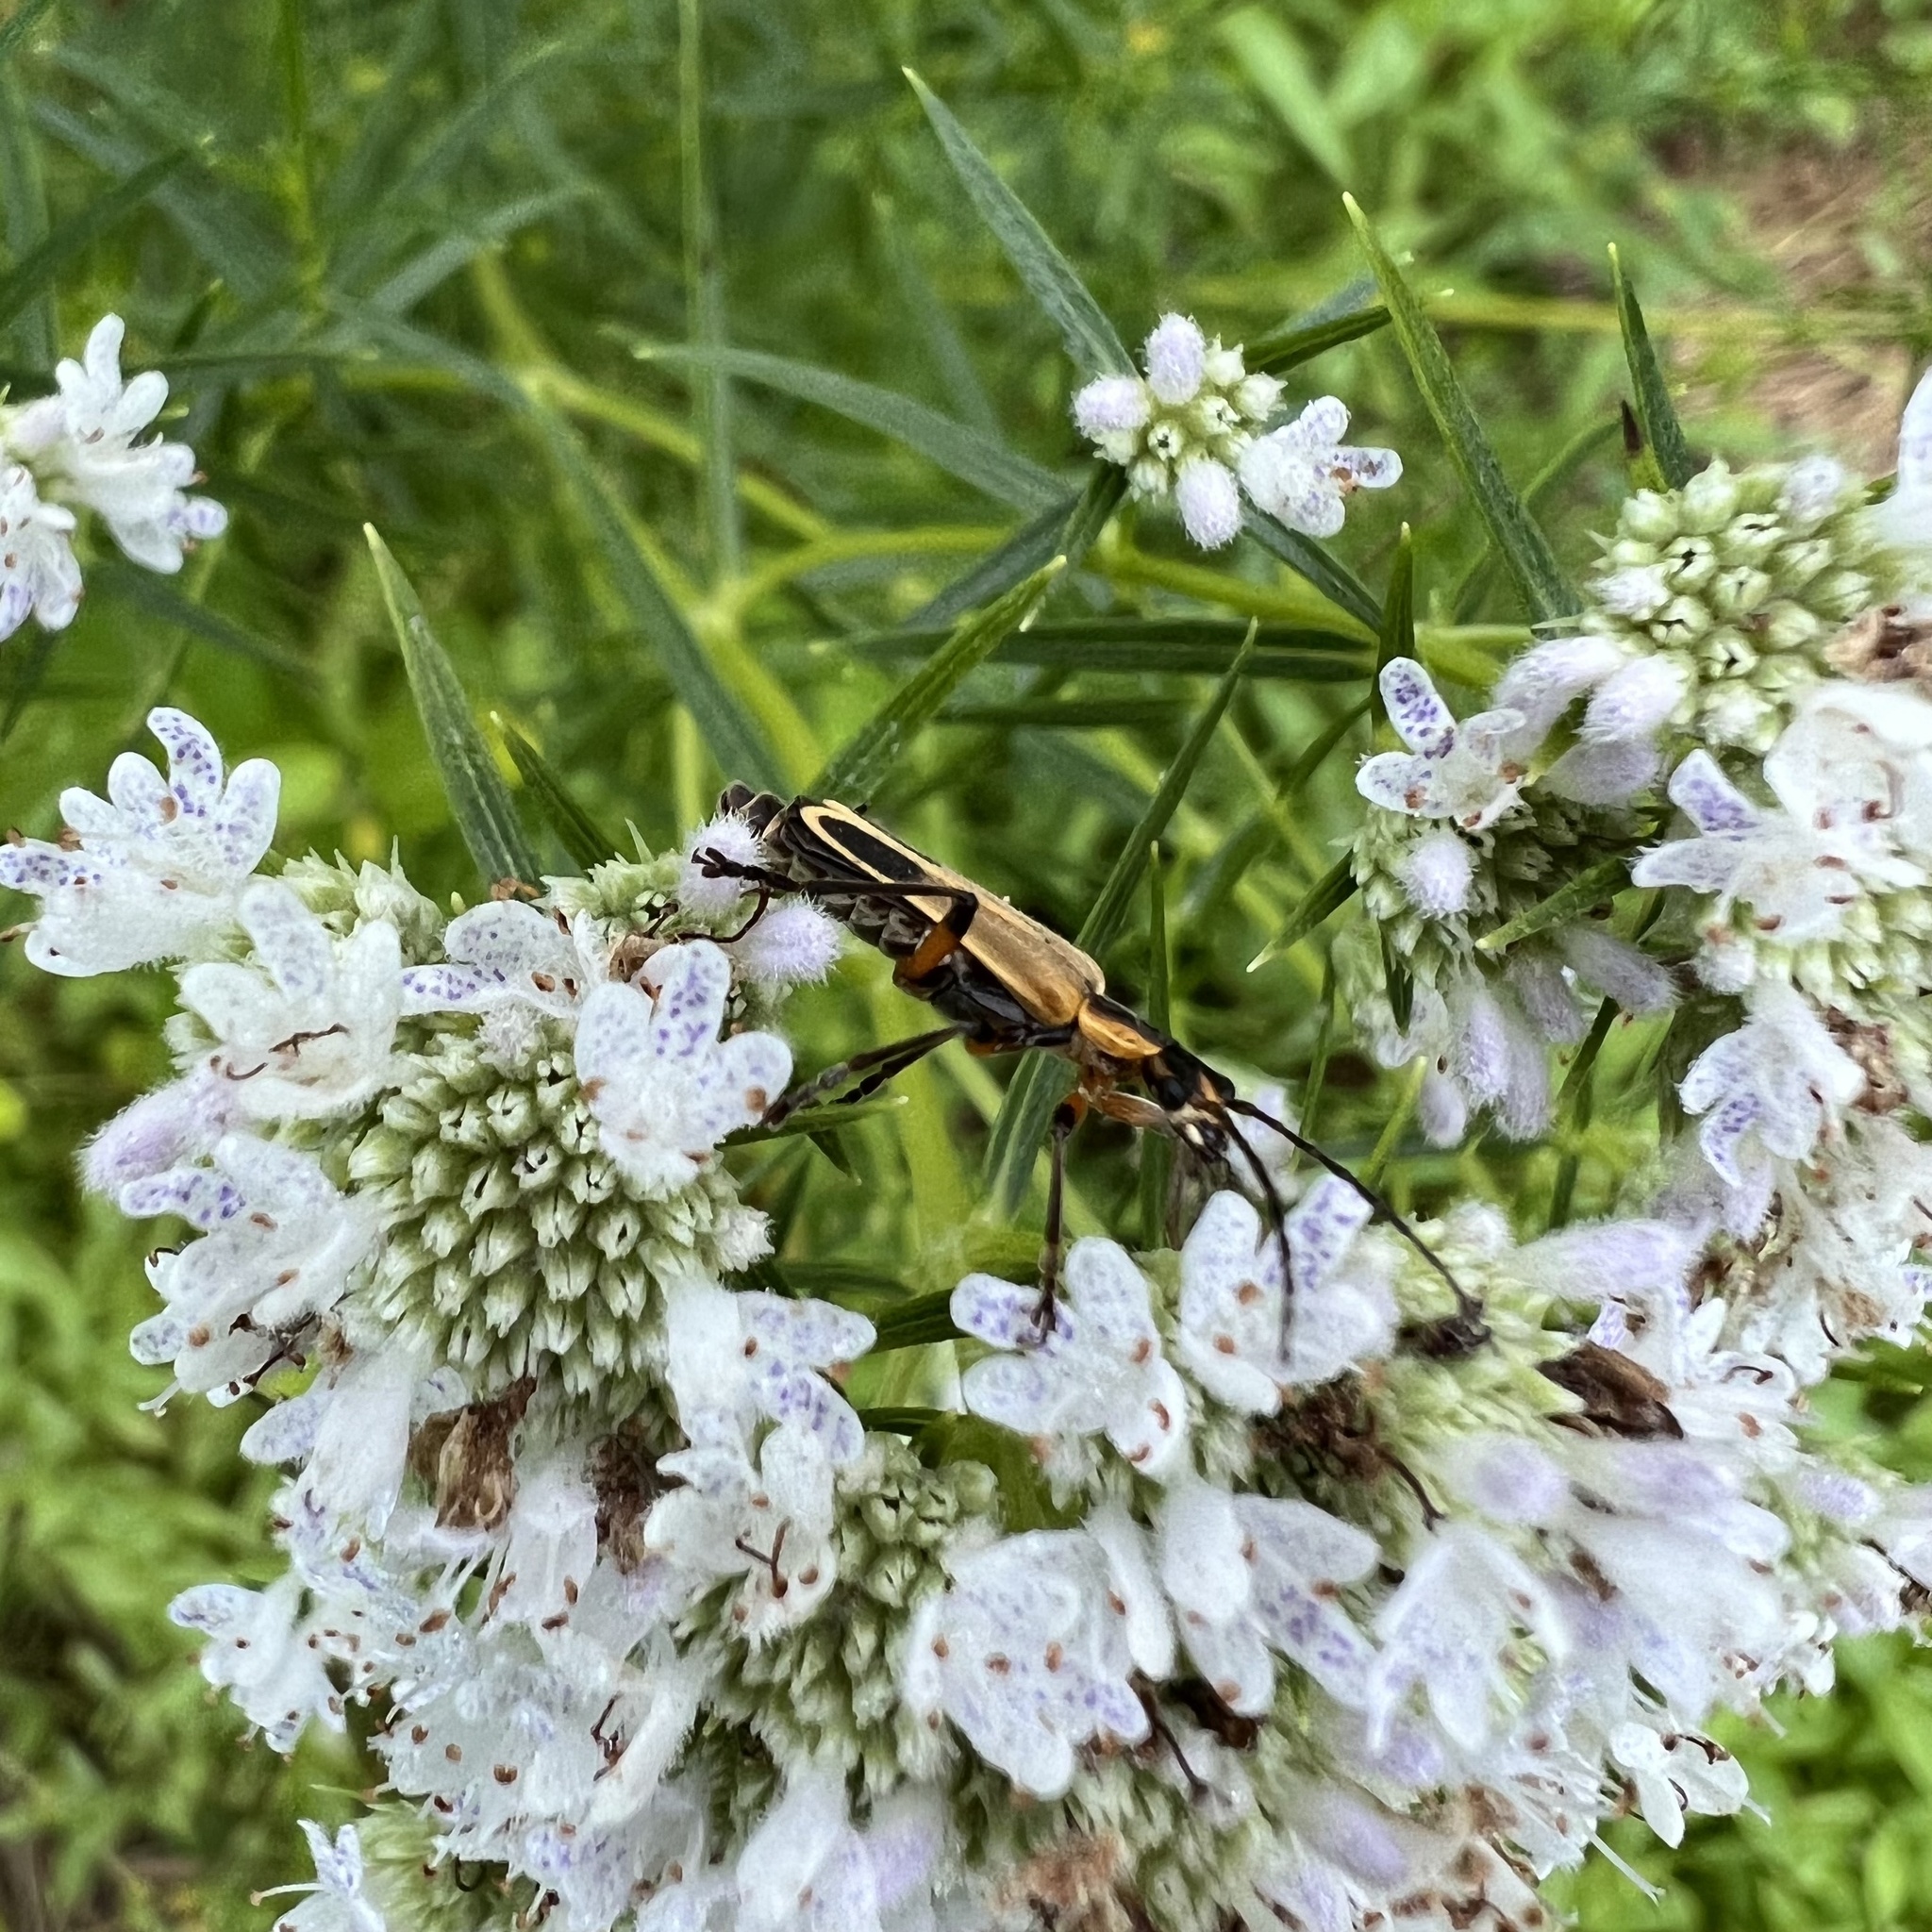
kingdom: Animalia
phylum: Arthropoda
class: Insecta
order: Coleoptera
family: Cantharidae
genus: Chauliognathus
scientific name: Chauliognathus marginatus
